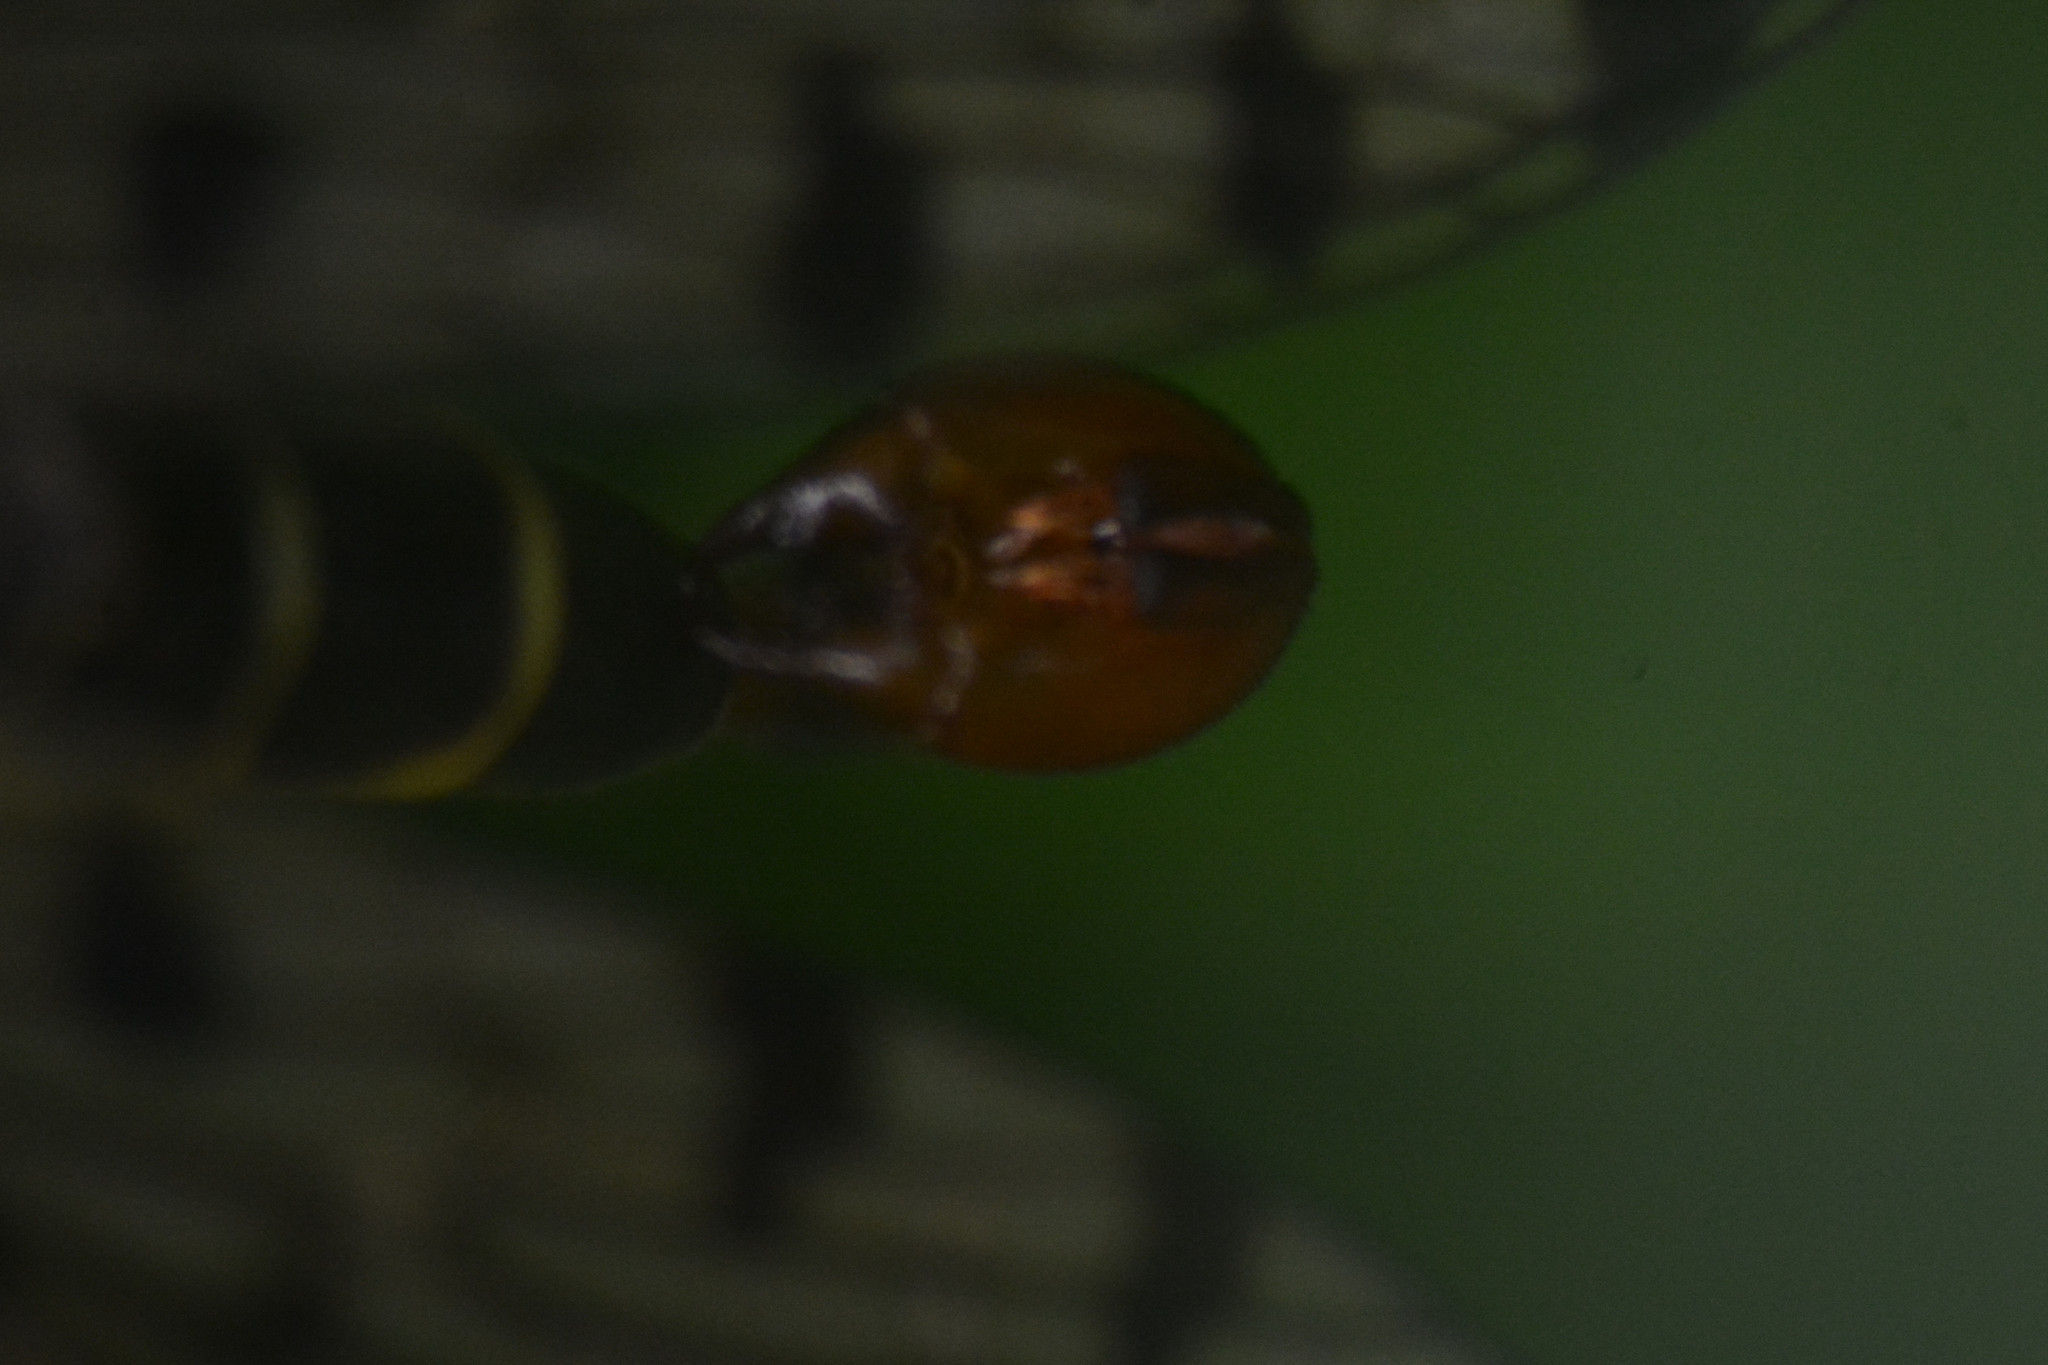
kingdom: Animalia
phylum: Arthropoda
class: Insecta
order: Mecoptera
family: Panorpidae
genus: Panorpa
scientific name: Panorpa germanica
